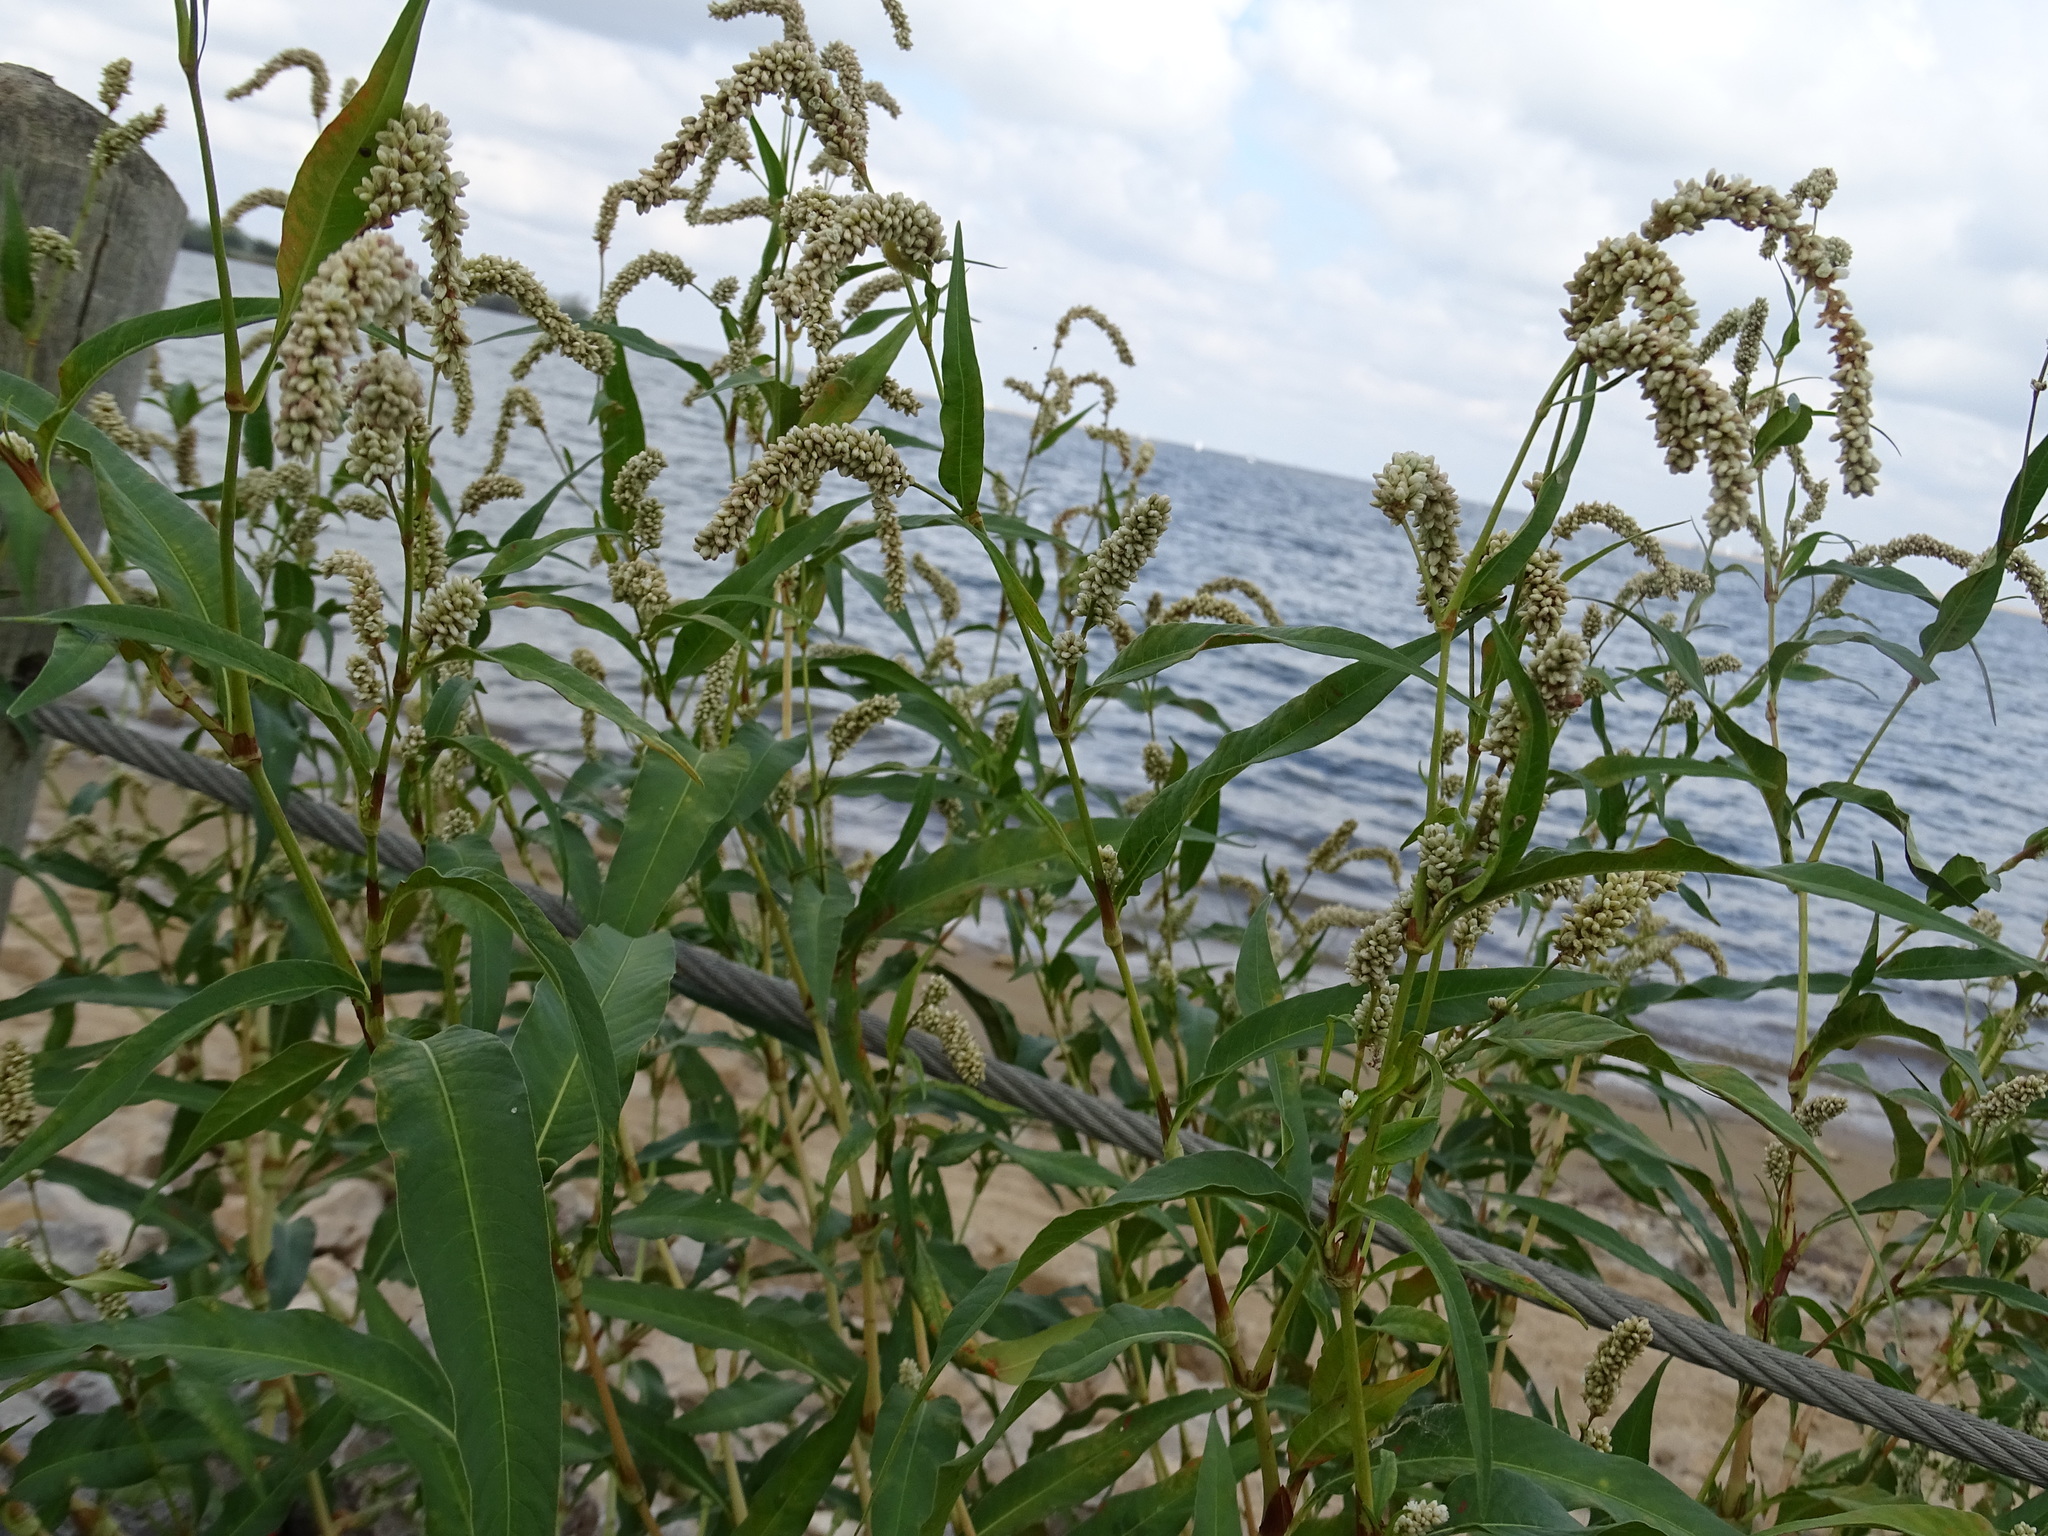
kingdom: Plantae
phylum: Tracheophyta
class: Magnoliopsida
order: Caryophyllales
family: Polygonaceae
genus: Persicaria
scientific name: Persicaria lapathifolia
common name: Curlytop knotweed
